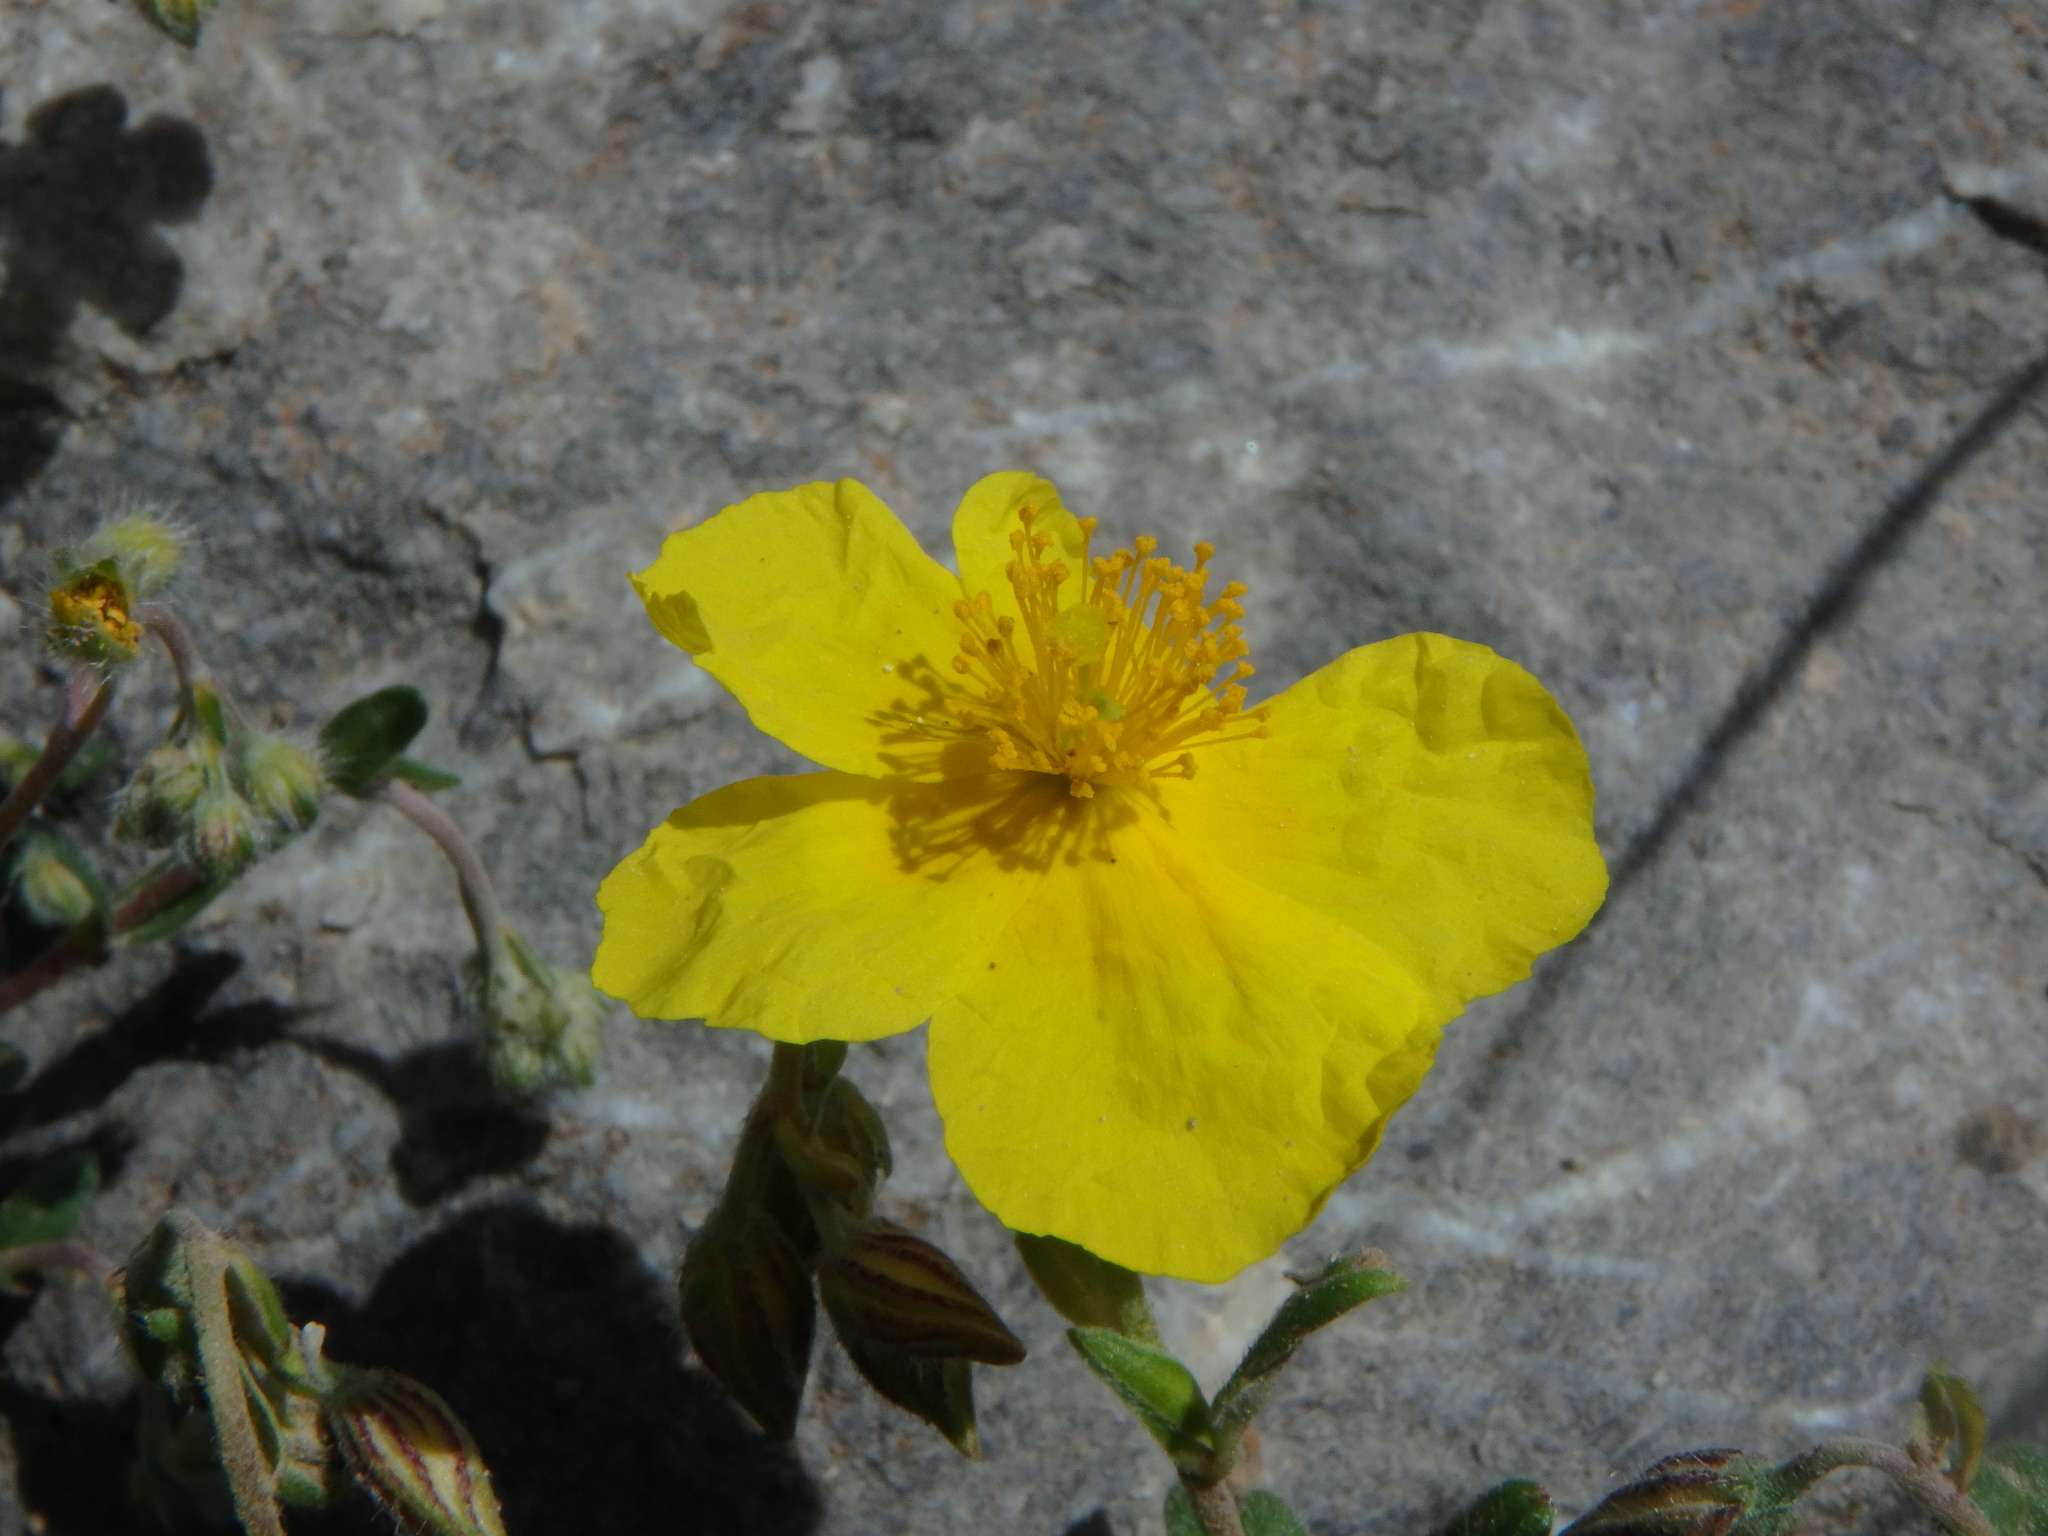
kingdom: Plantae
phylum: Tracheophyta
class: Magnoliopsida
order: Malvales
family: Cistaceae
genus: Helianthemum
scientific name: Helianthemum nummularium
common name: Common rock-rose
